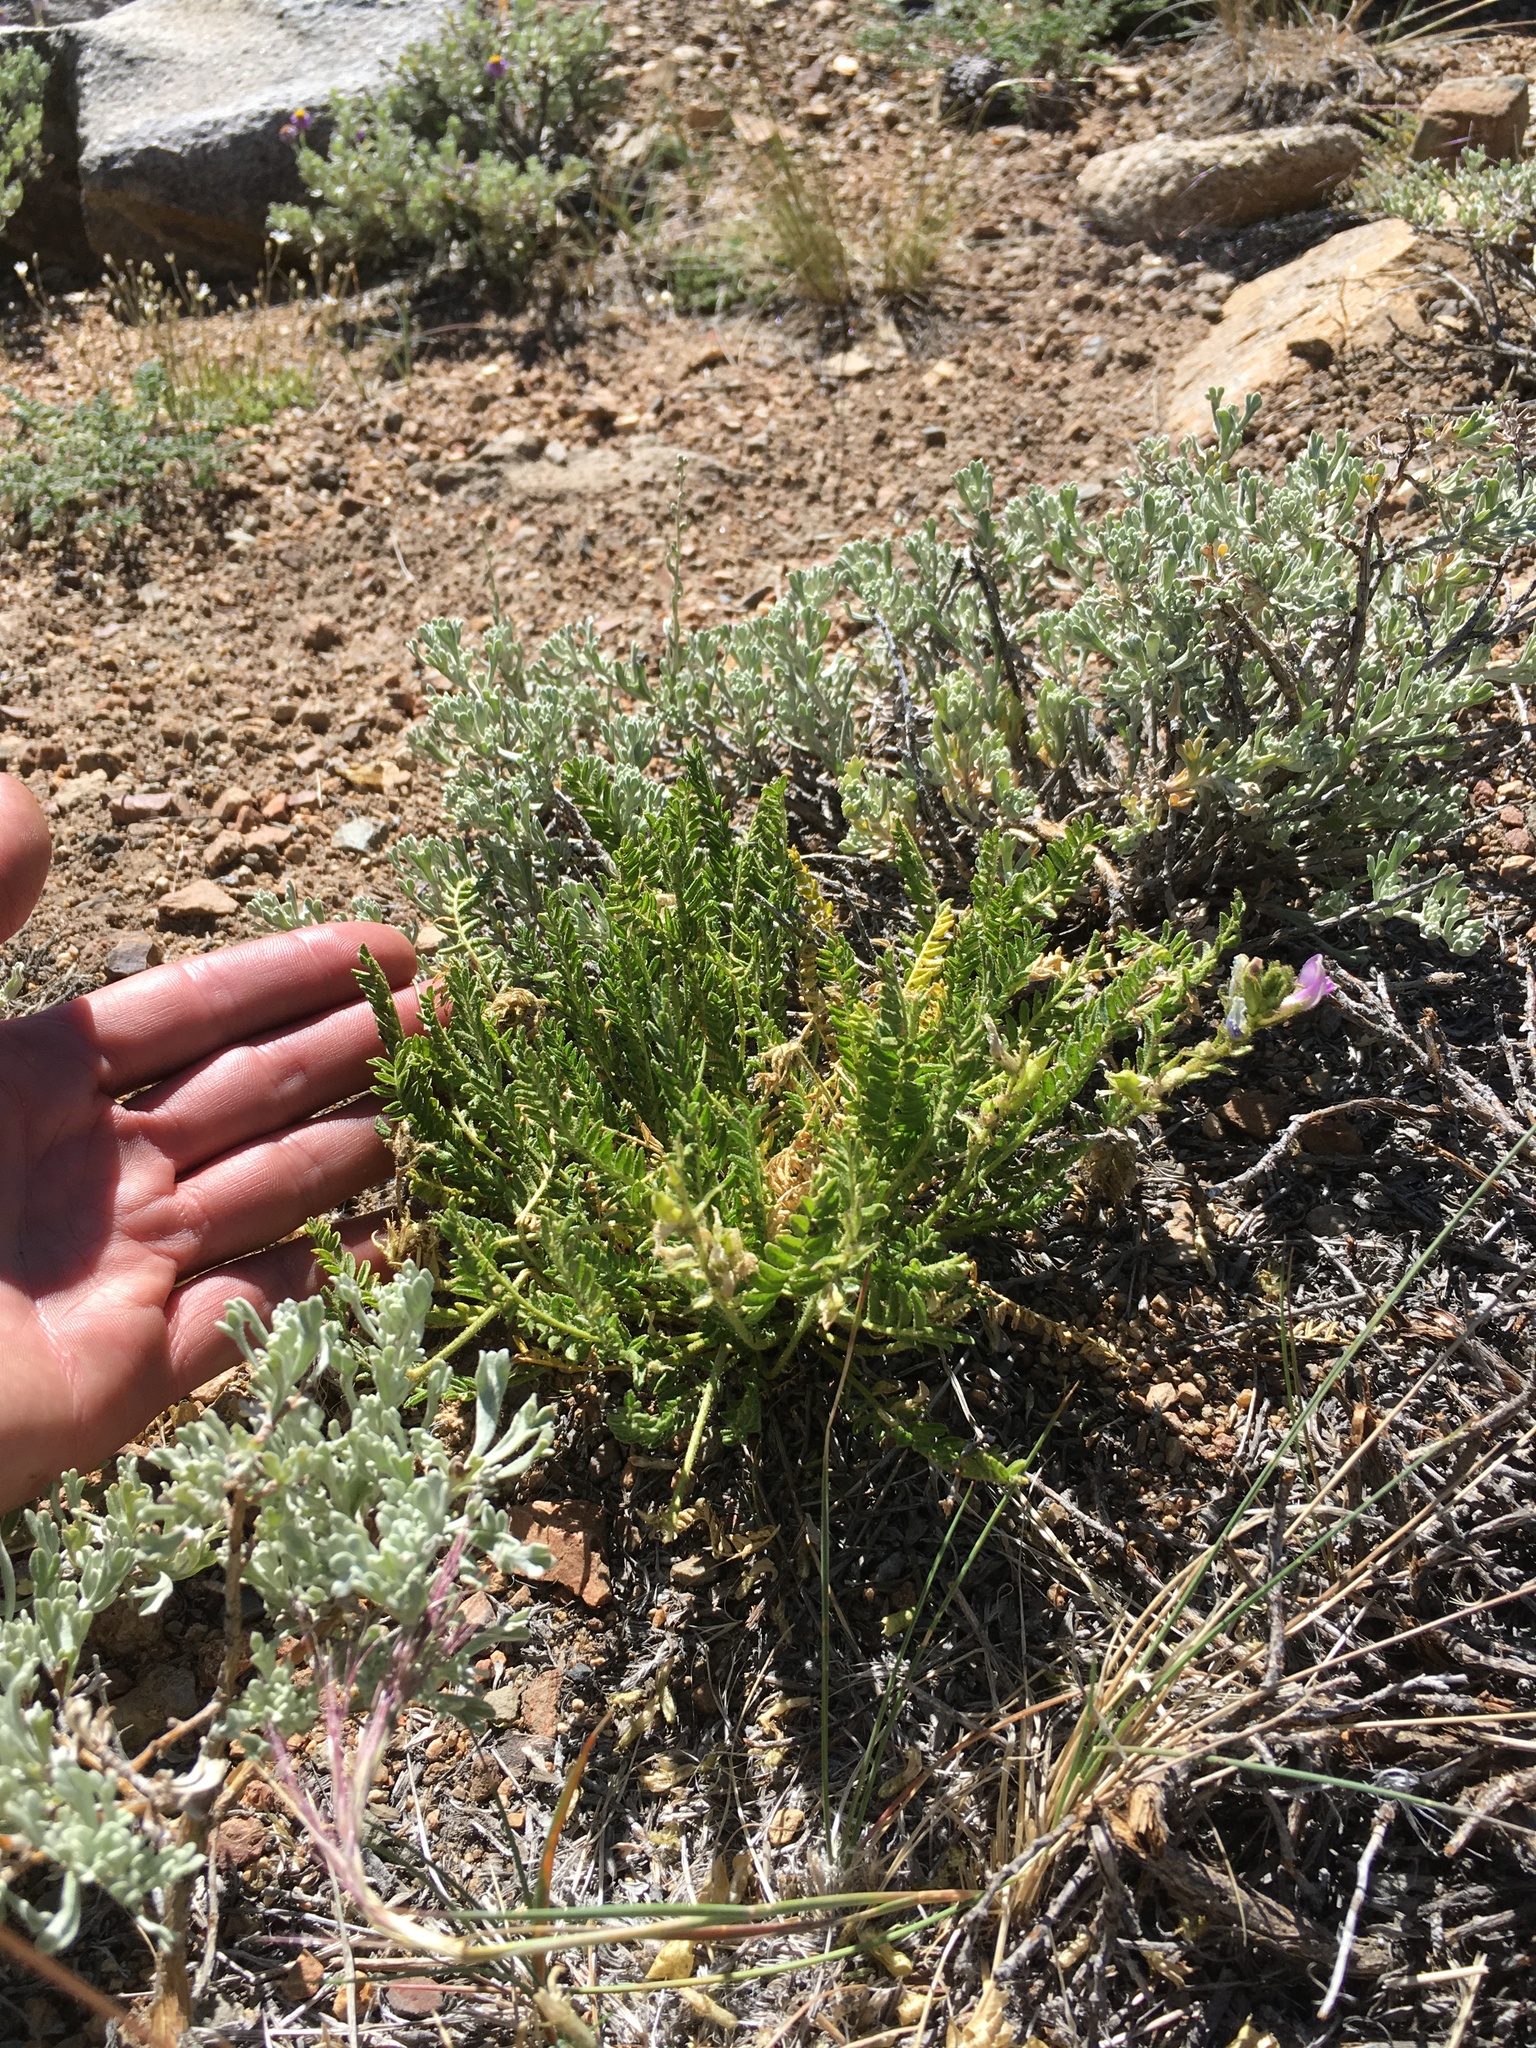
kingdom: Plantae
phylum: Tracheophyta
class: Magnoliopsida
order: Fabales
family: Fabaceae
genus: Oxytropis
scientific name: Oxytropis borealis
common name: Boreal locoweed
